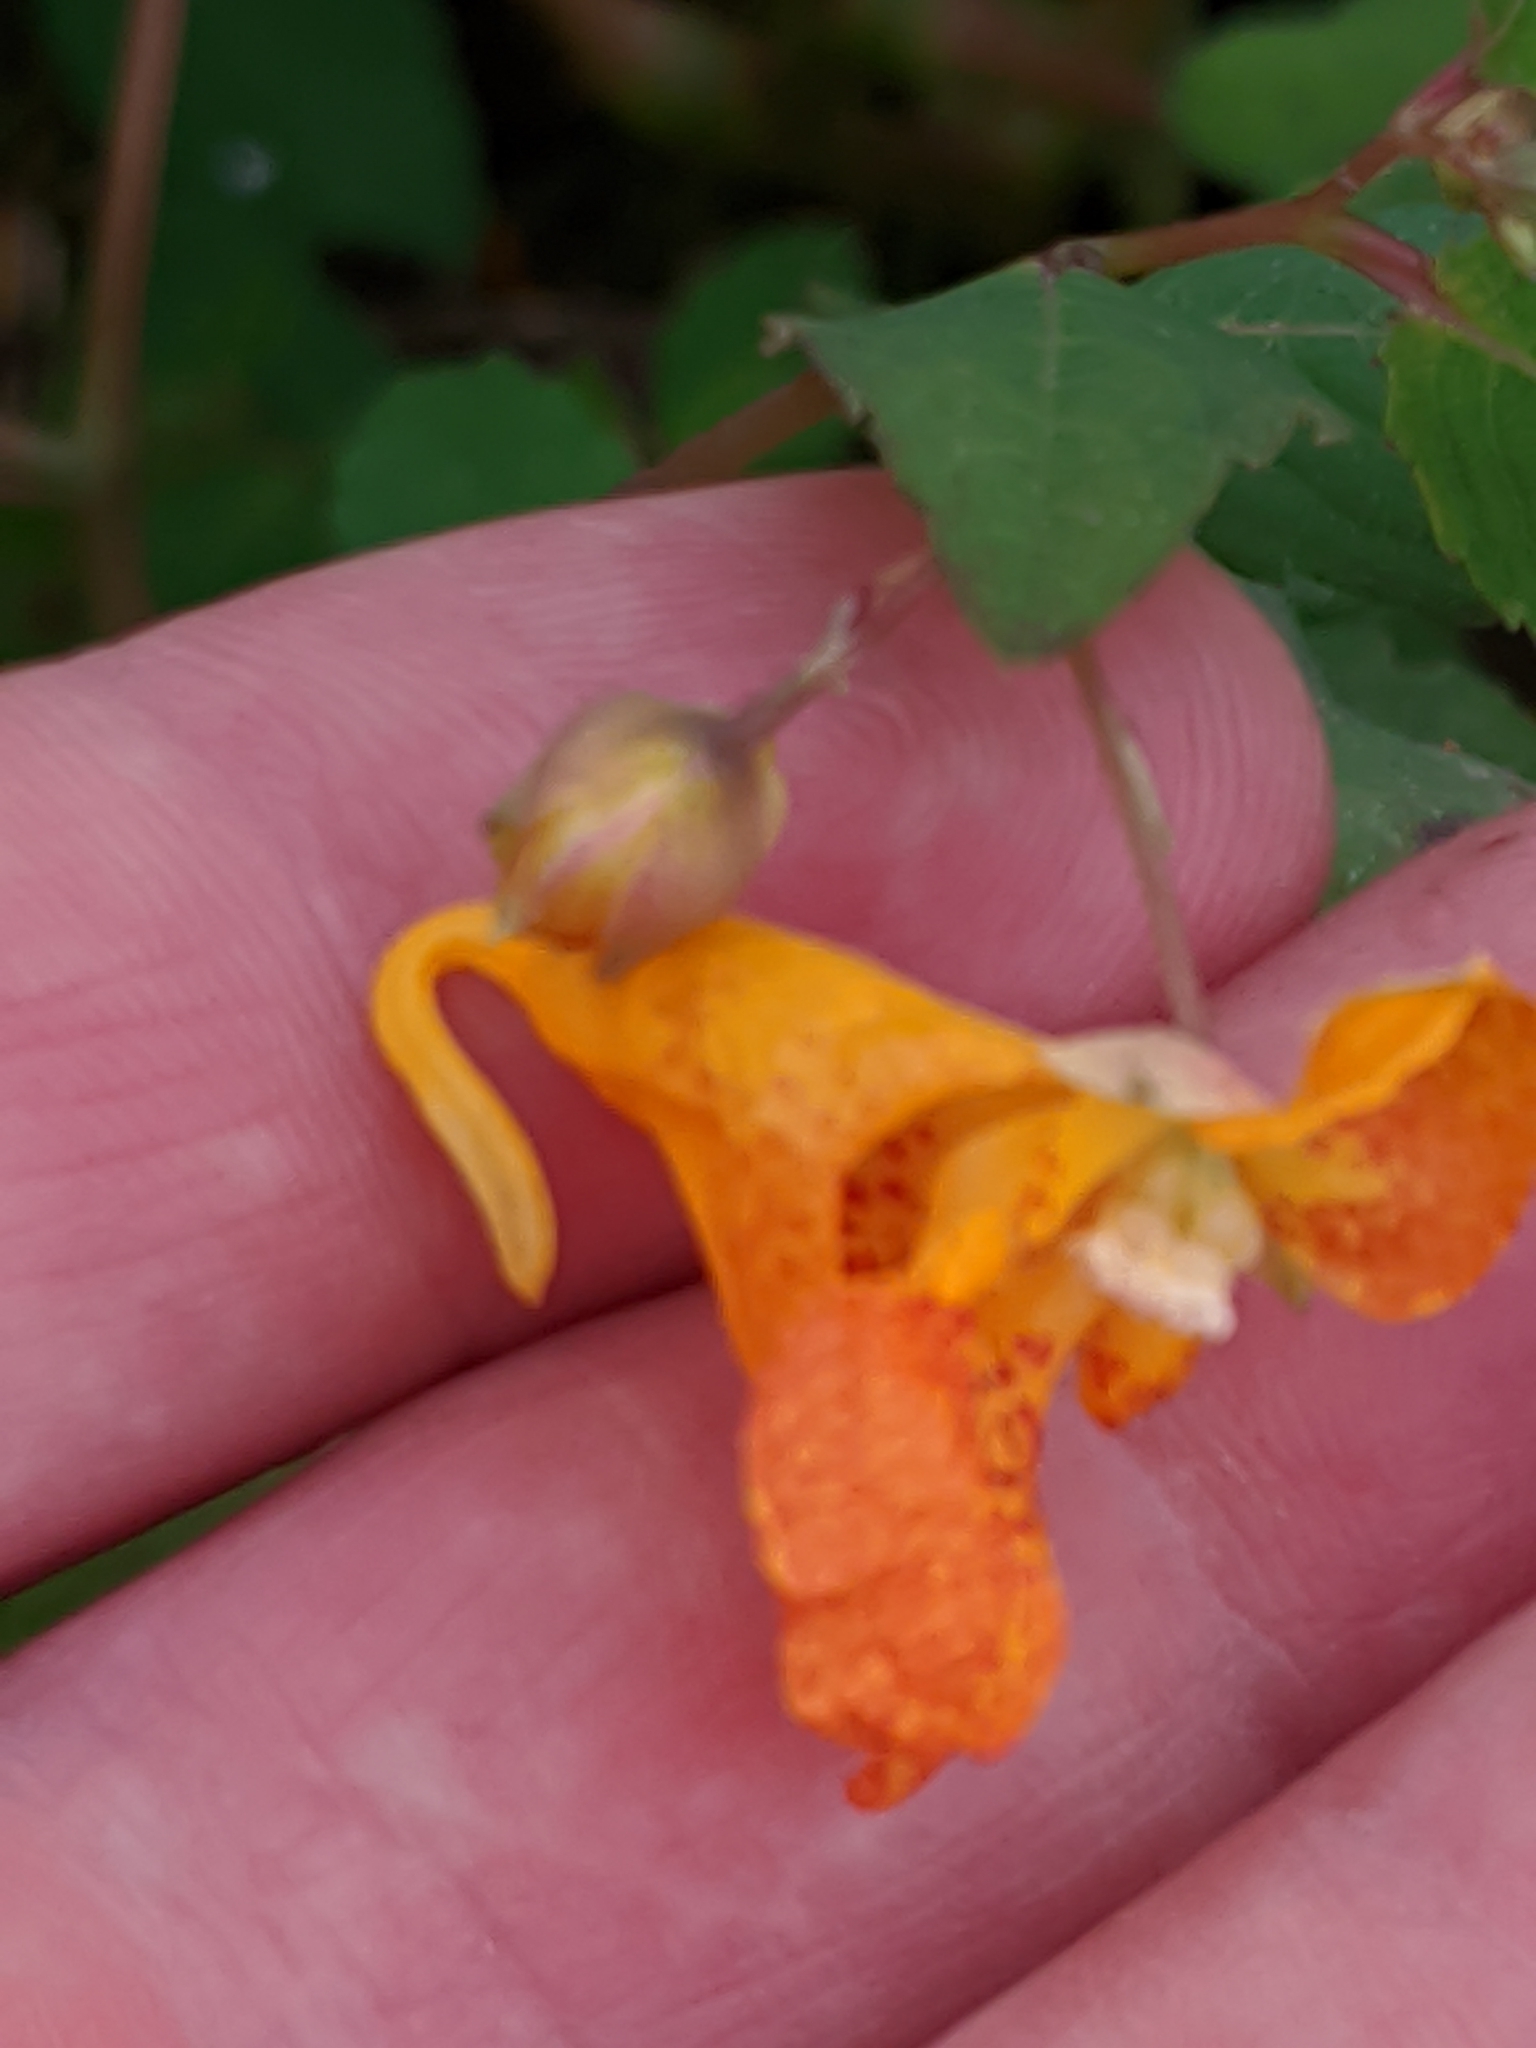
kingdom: Plantae
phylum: Tracheophyta
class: Magnoliopsida
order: Ericales
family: Balsaminaceae
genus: Impatiens
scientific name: Impatiens capensis
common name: Orange balsam
